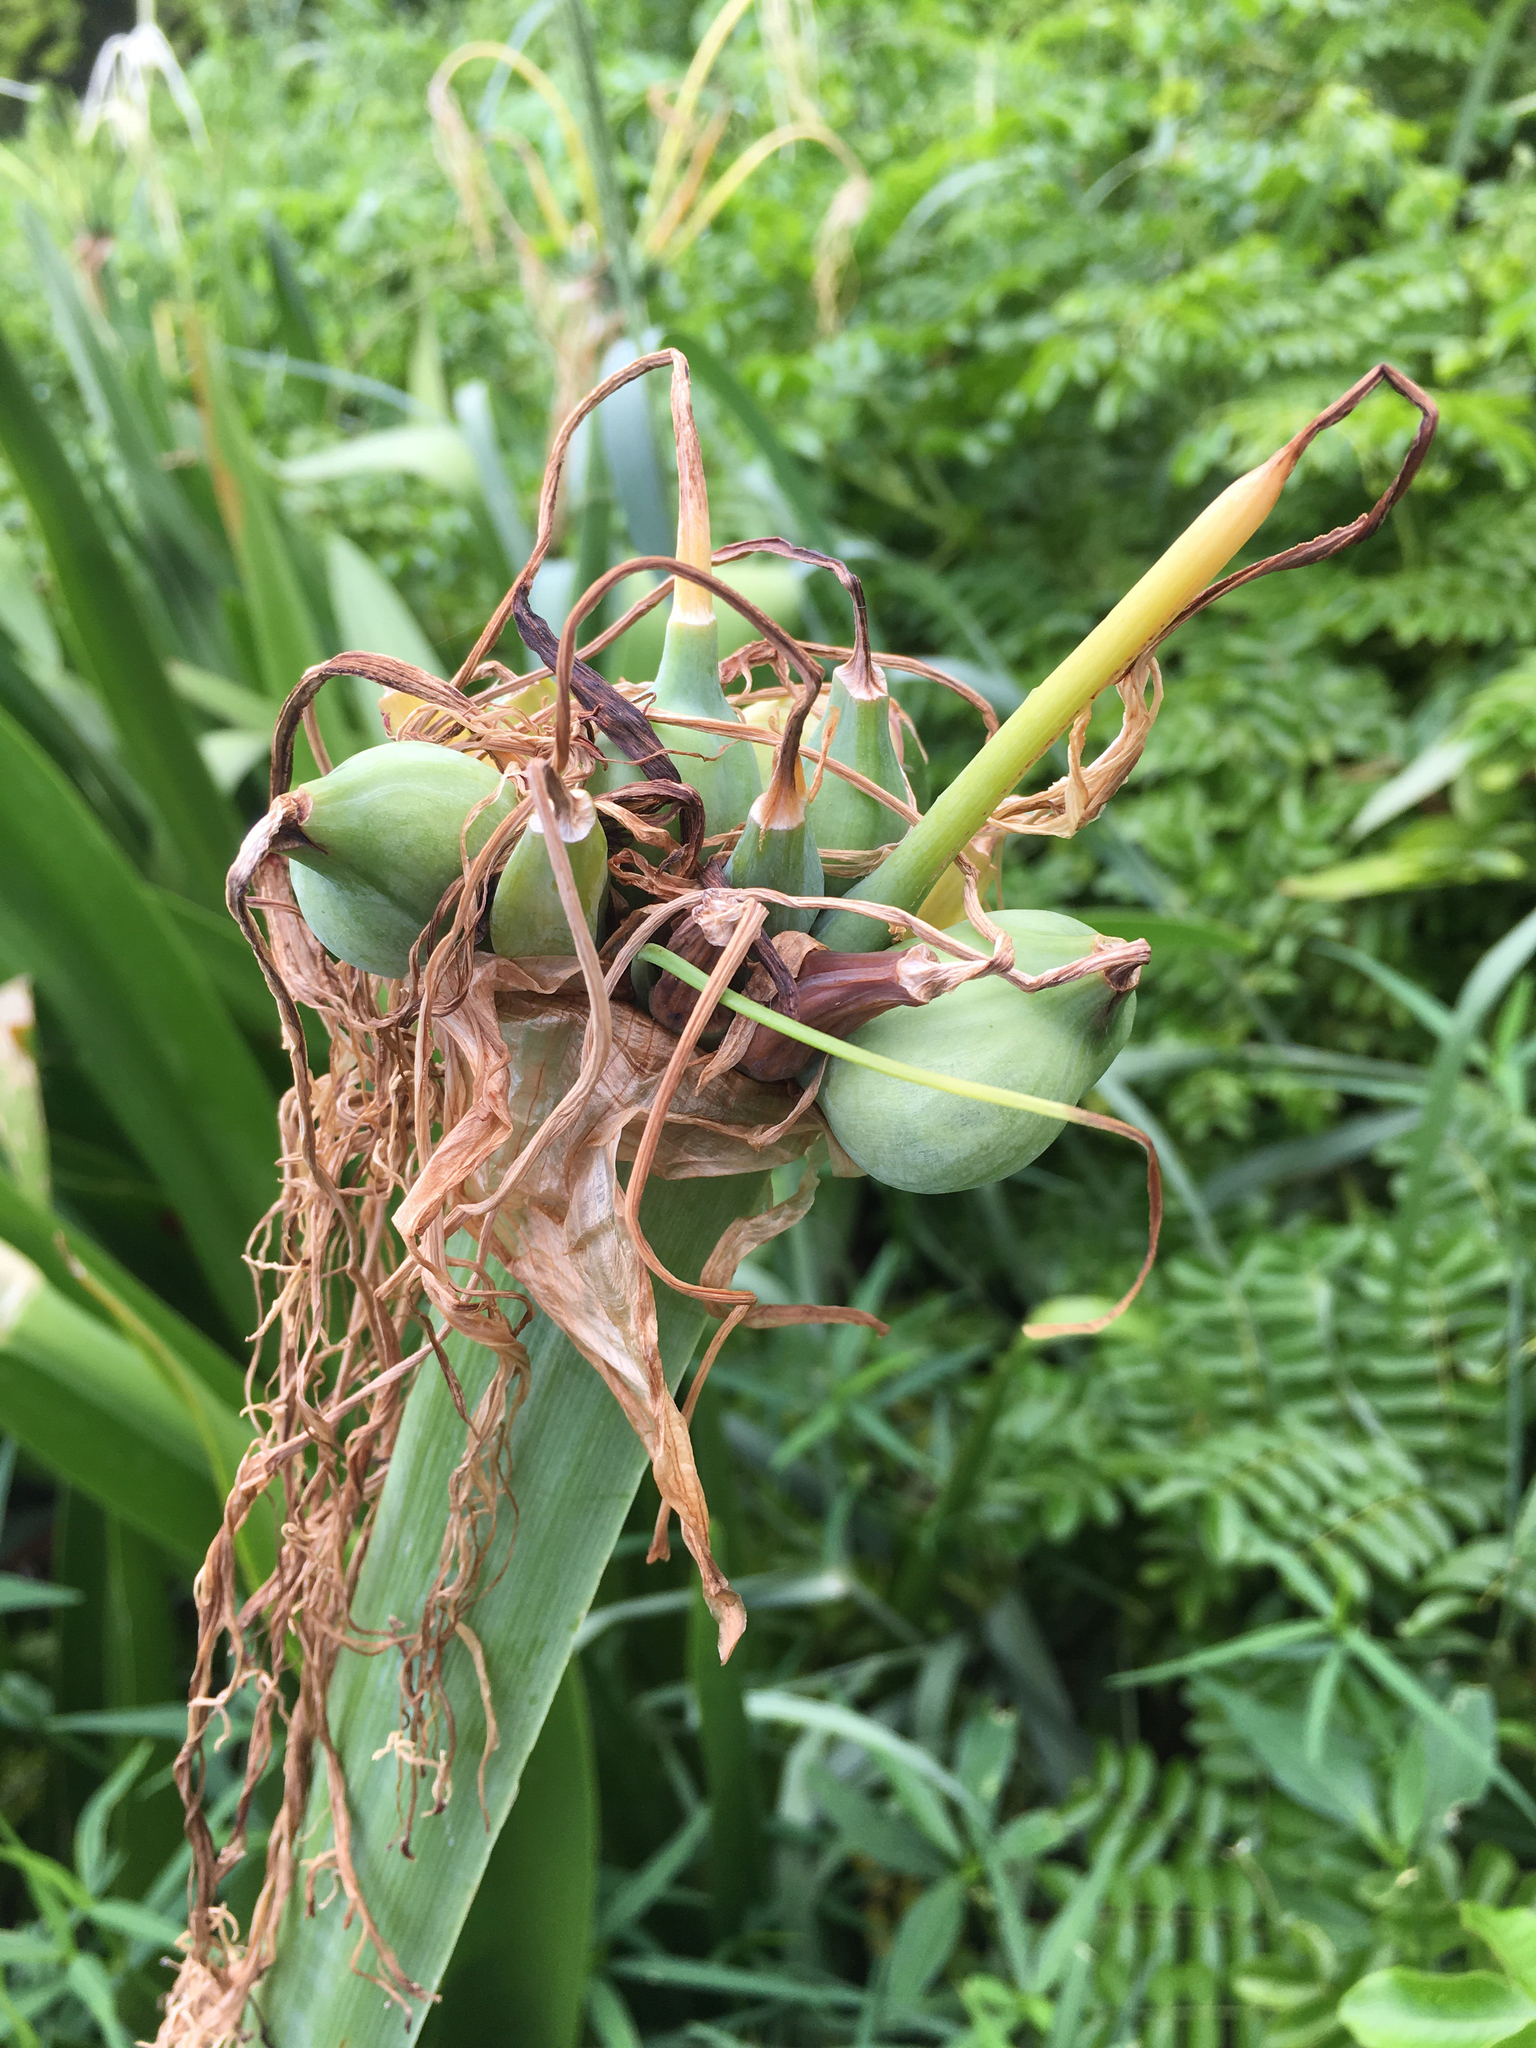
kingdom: Plantae
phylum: Tracheophyta
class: Liliopsida
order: Asparagales
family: Amaryllidaceae
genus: Hymenocallis
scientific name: Hymenocallis latifolia
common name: Cayman islands spider-lily
